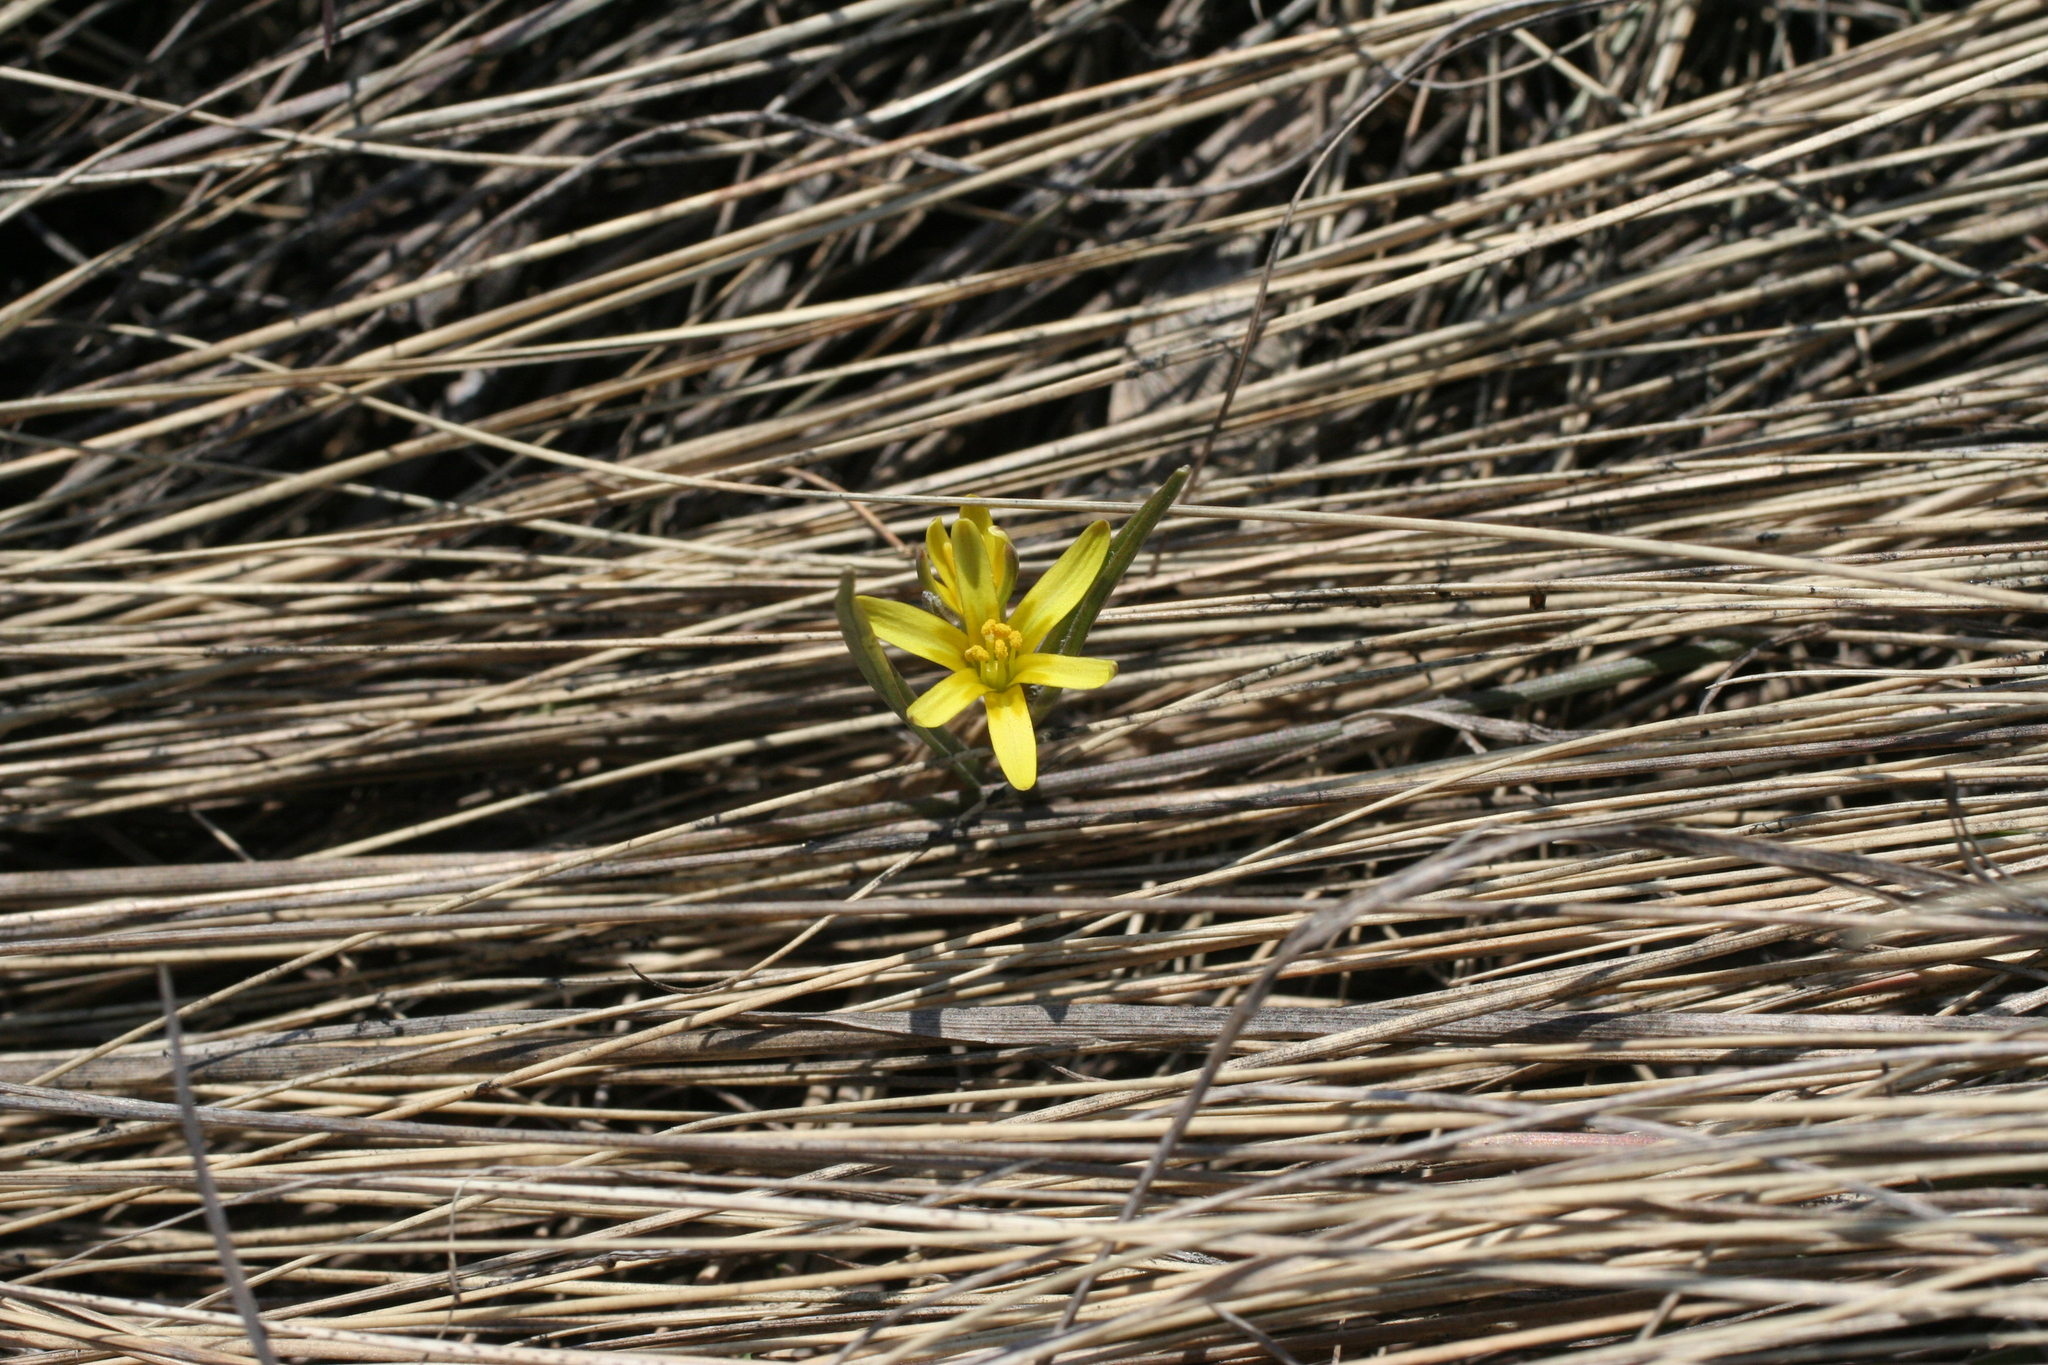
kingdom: Plantae
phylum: Tracheophyta
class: Liliopsida
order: Liliales
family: Liliaceae
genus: Gagea
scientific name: Gagea fedtschenkoana
